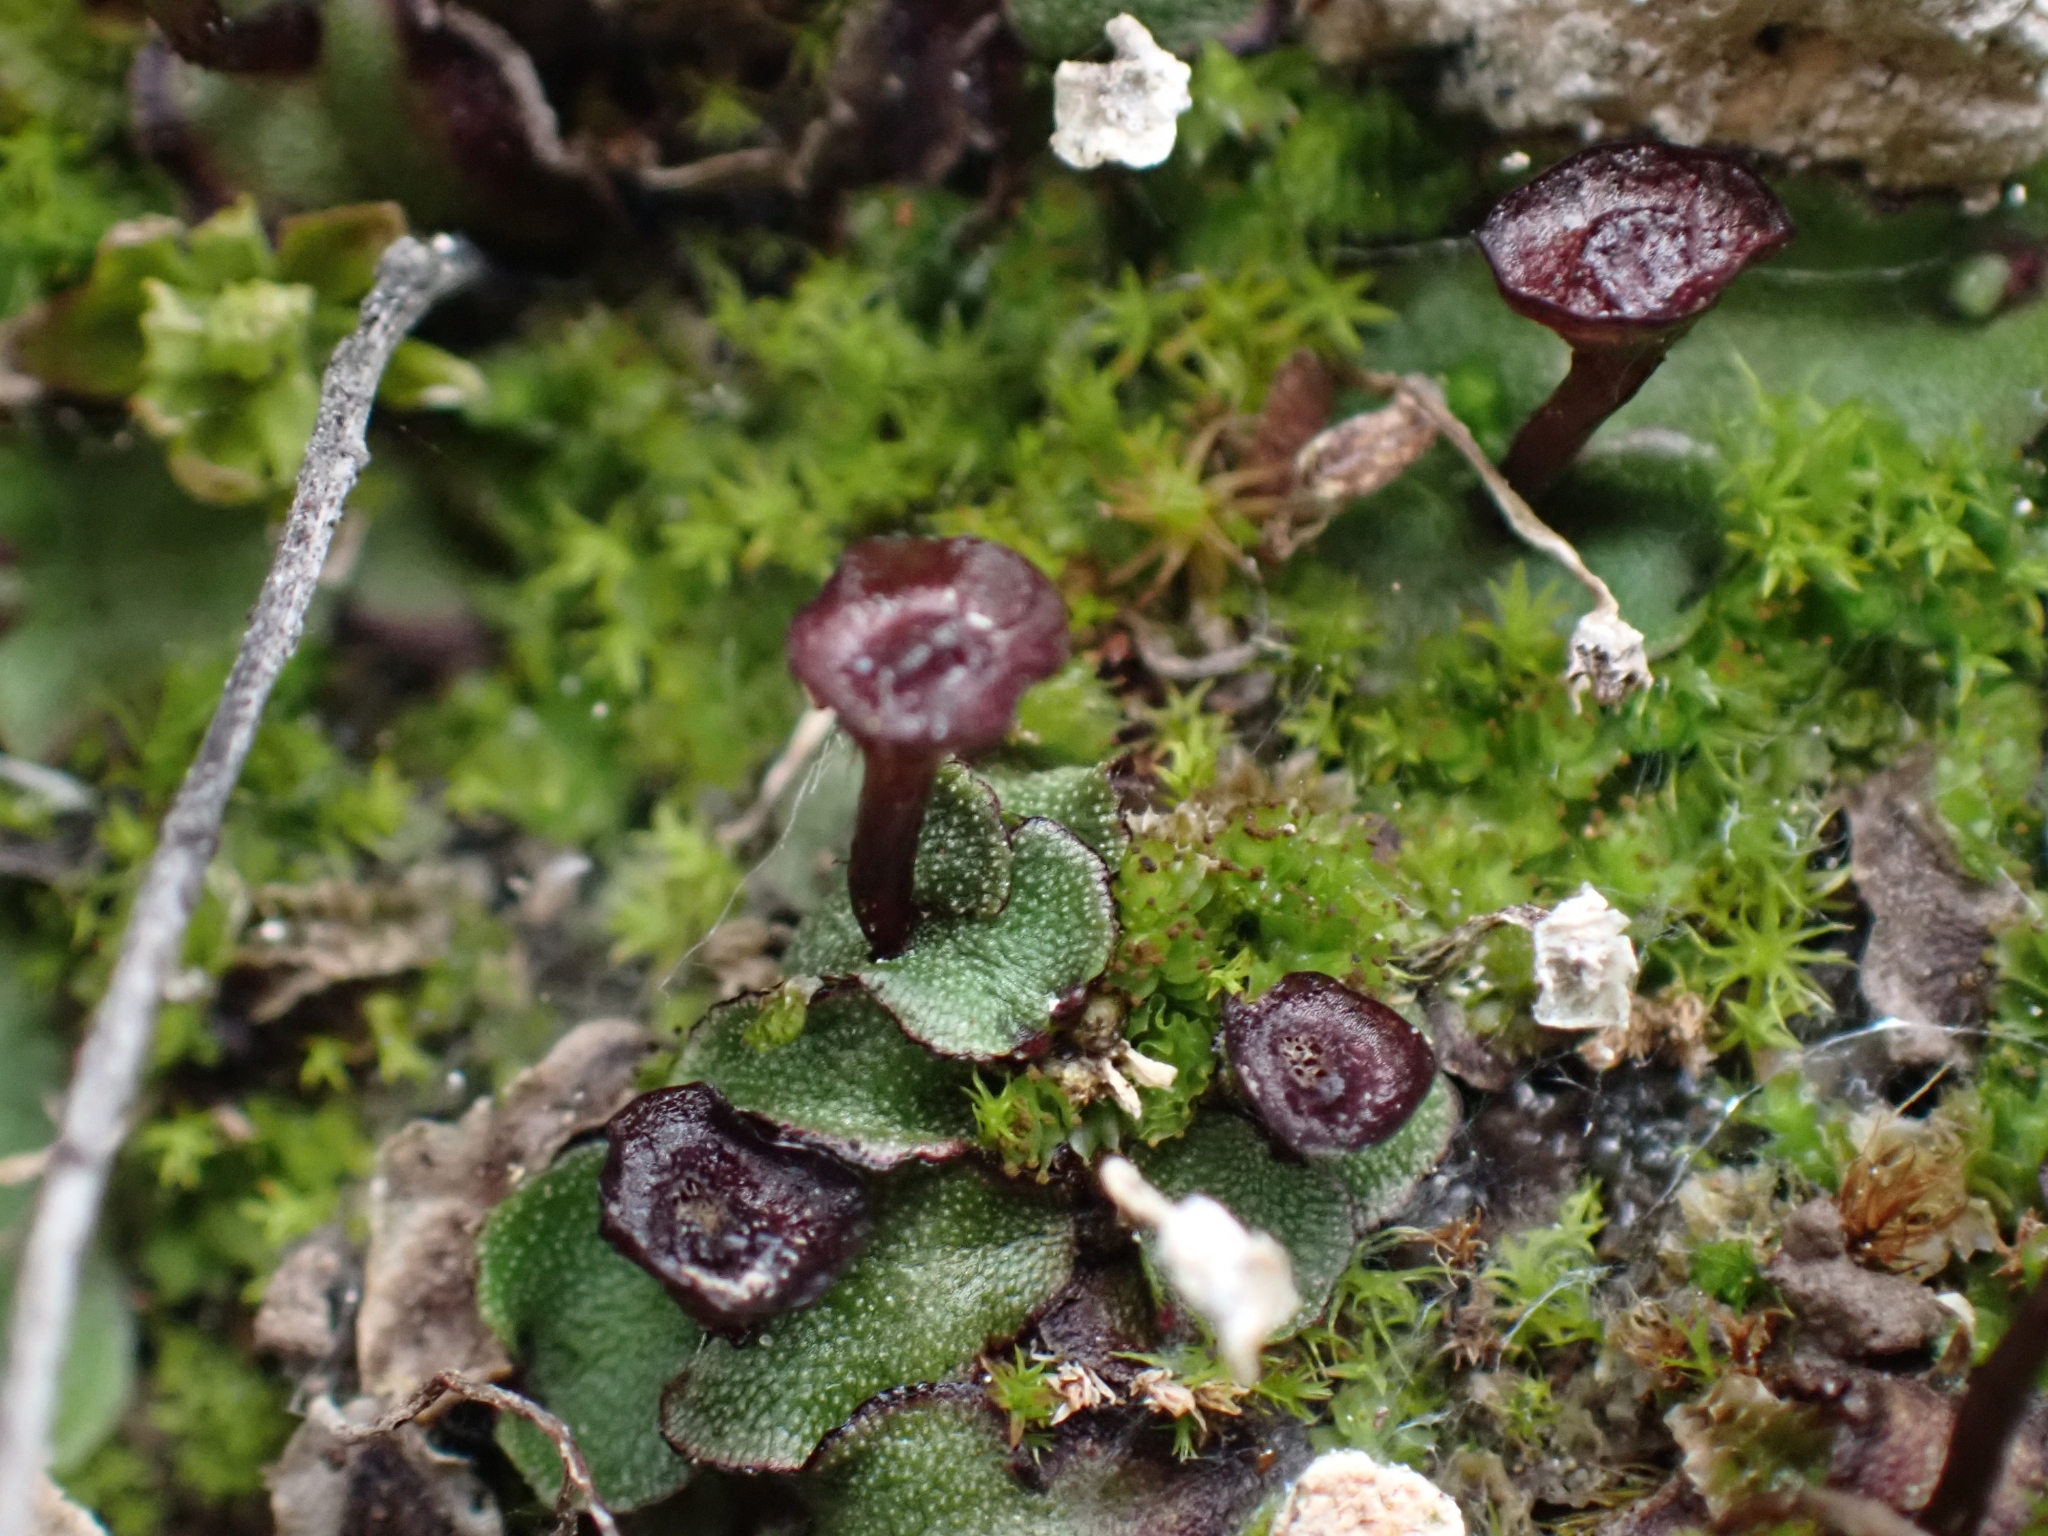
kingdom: Plantae
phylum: Marchantiophyta
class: Marchantiopsida
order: Marchantiales
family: Marchantiaceae
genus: Marchantia
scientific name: Marchantia quadrata
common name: Narrow mushroom-headed liverwort
